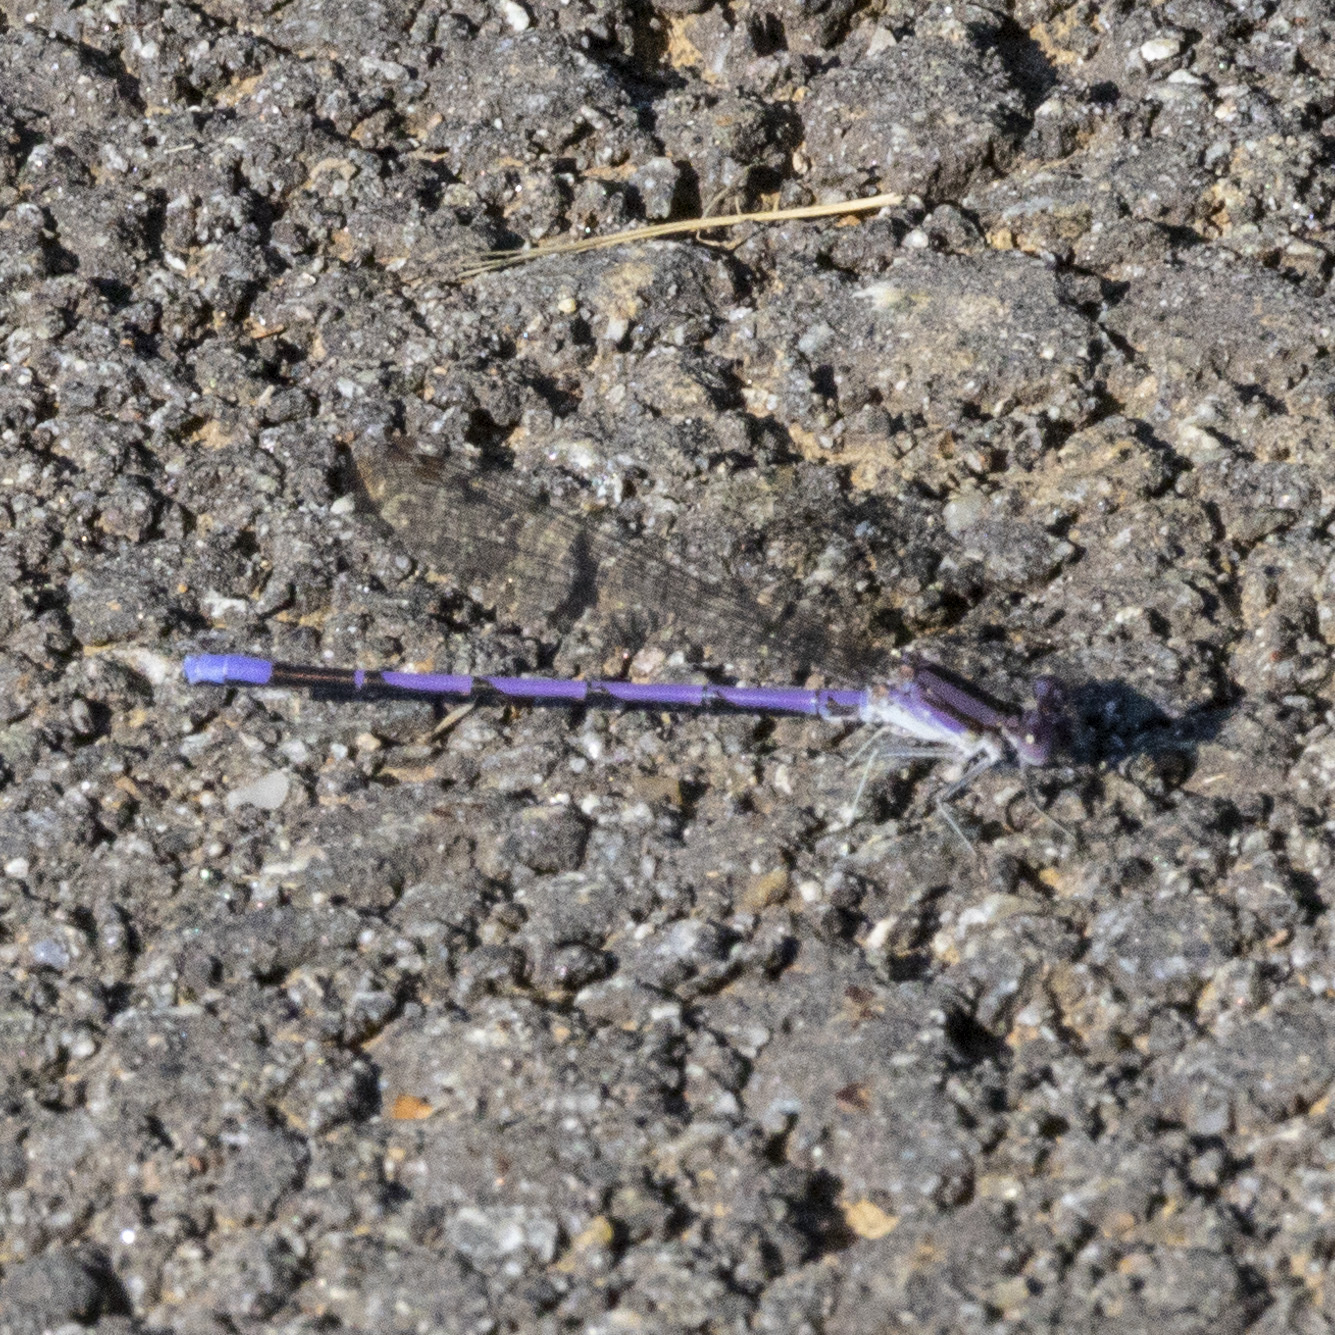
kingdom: Animalia
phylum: Arthropoda
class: Insecta
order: Odonata
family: Coenagrionidae
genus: Argia
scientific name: Argia fumipennis
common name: Variable dancer
